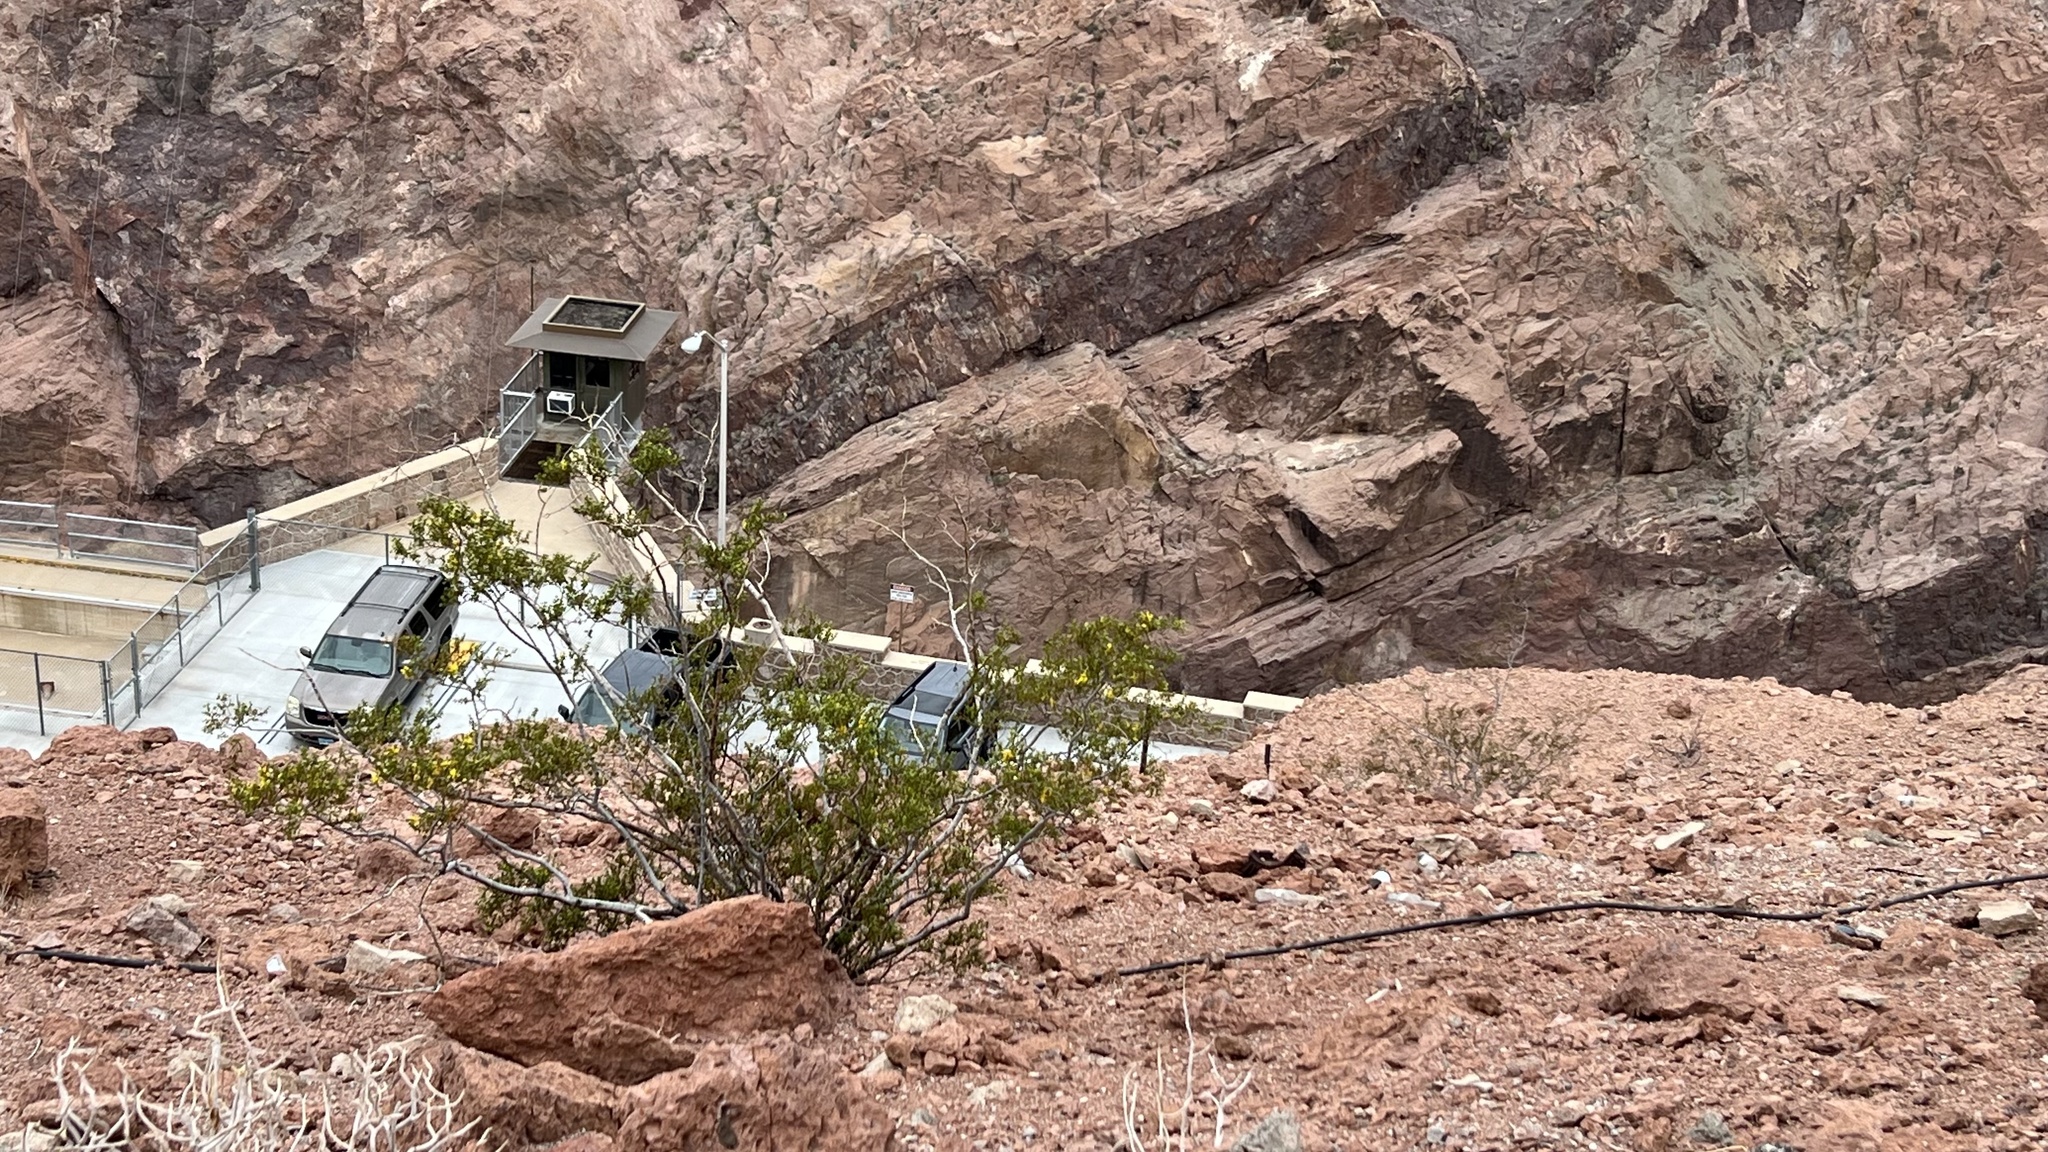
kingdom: Plantae
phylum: Tracheophyta
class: Magnoliopsida
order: Zygophyllales
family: Zygophyllaceae
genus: Larrea
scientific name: Larrea tridentata
